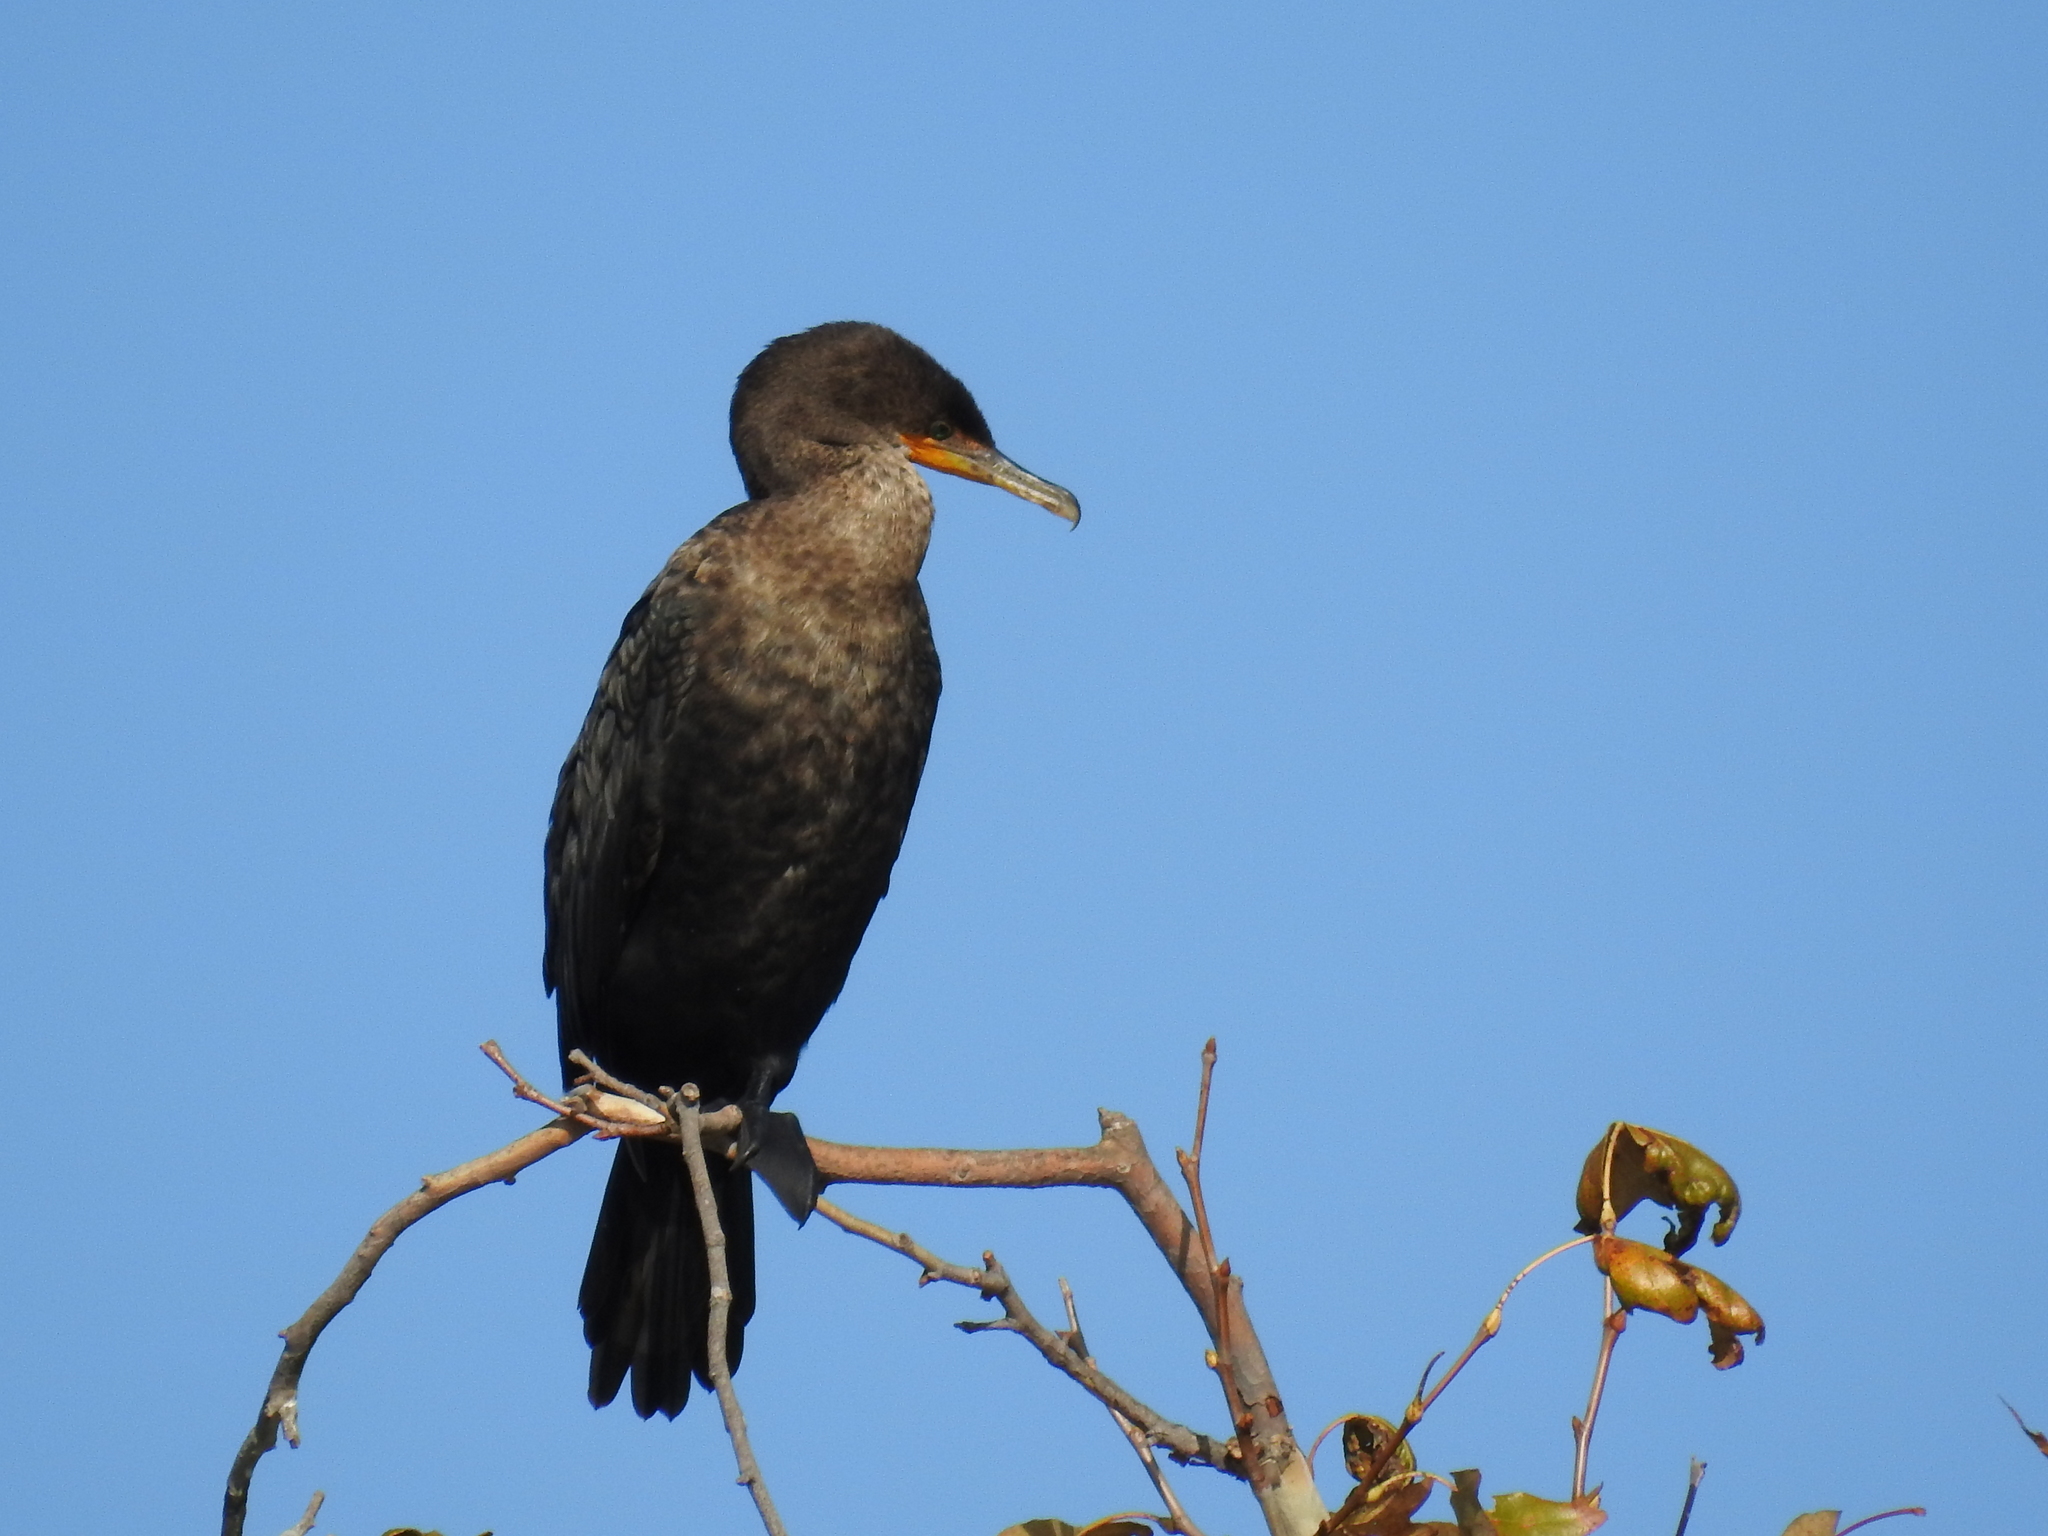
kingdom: Animalia
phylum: Chordata
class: Aves
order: Suliformes
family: Phalacrocoracidae
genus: Phalacrocorax
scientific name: Phalacrocorax auritus
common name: Double-crested cormorant
